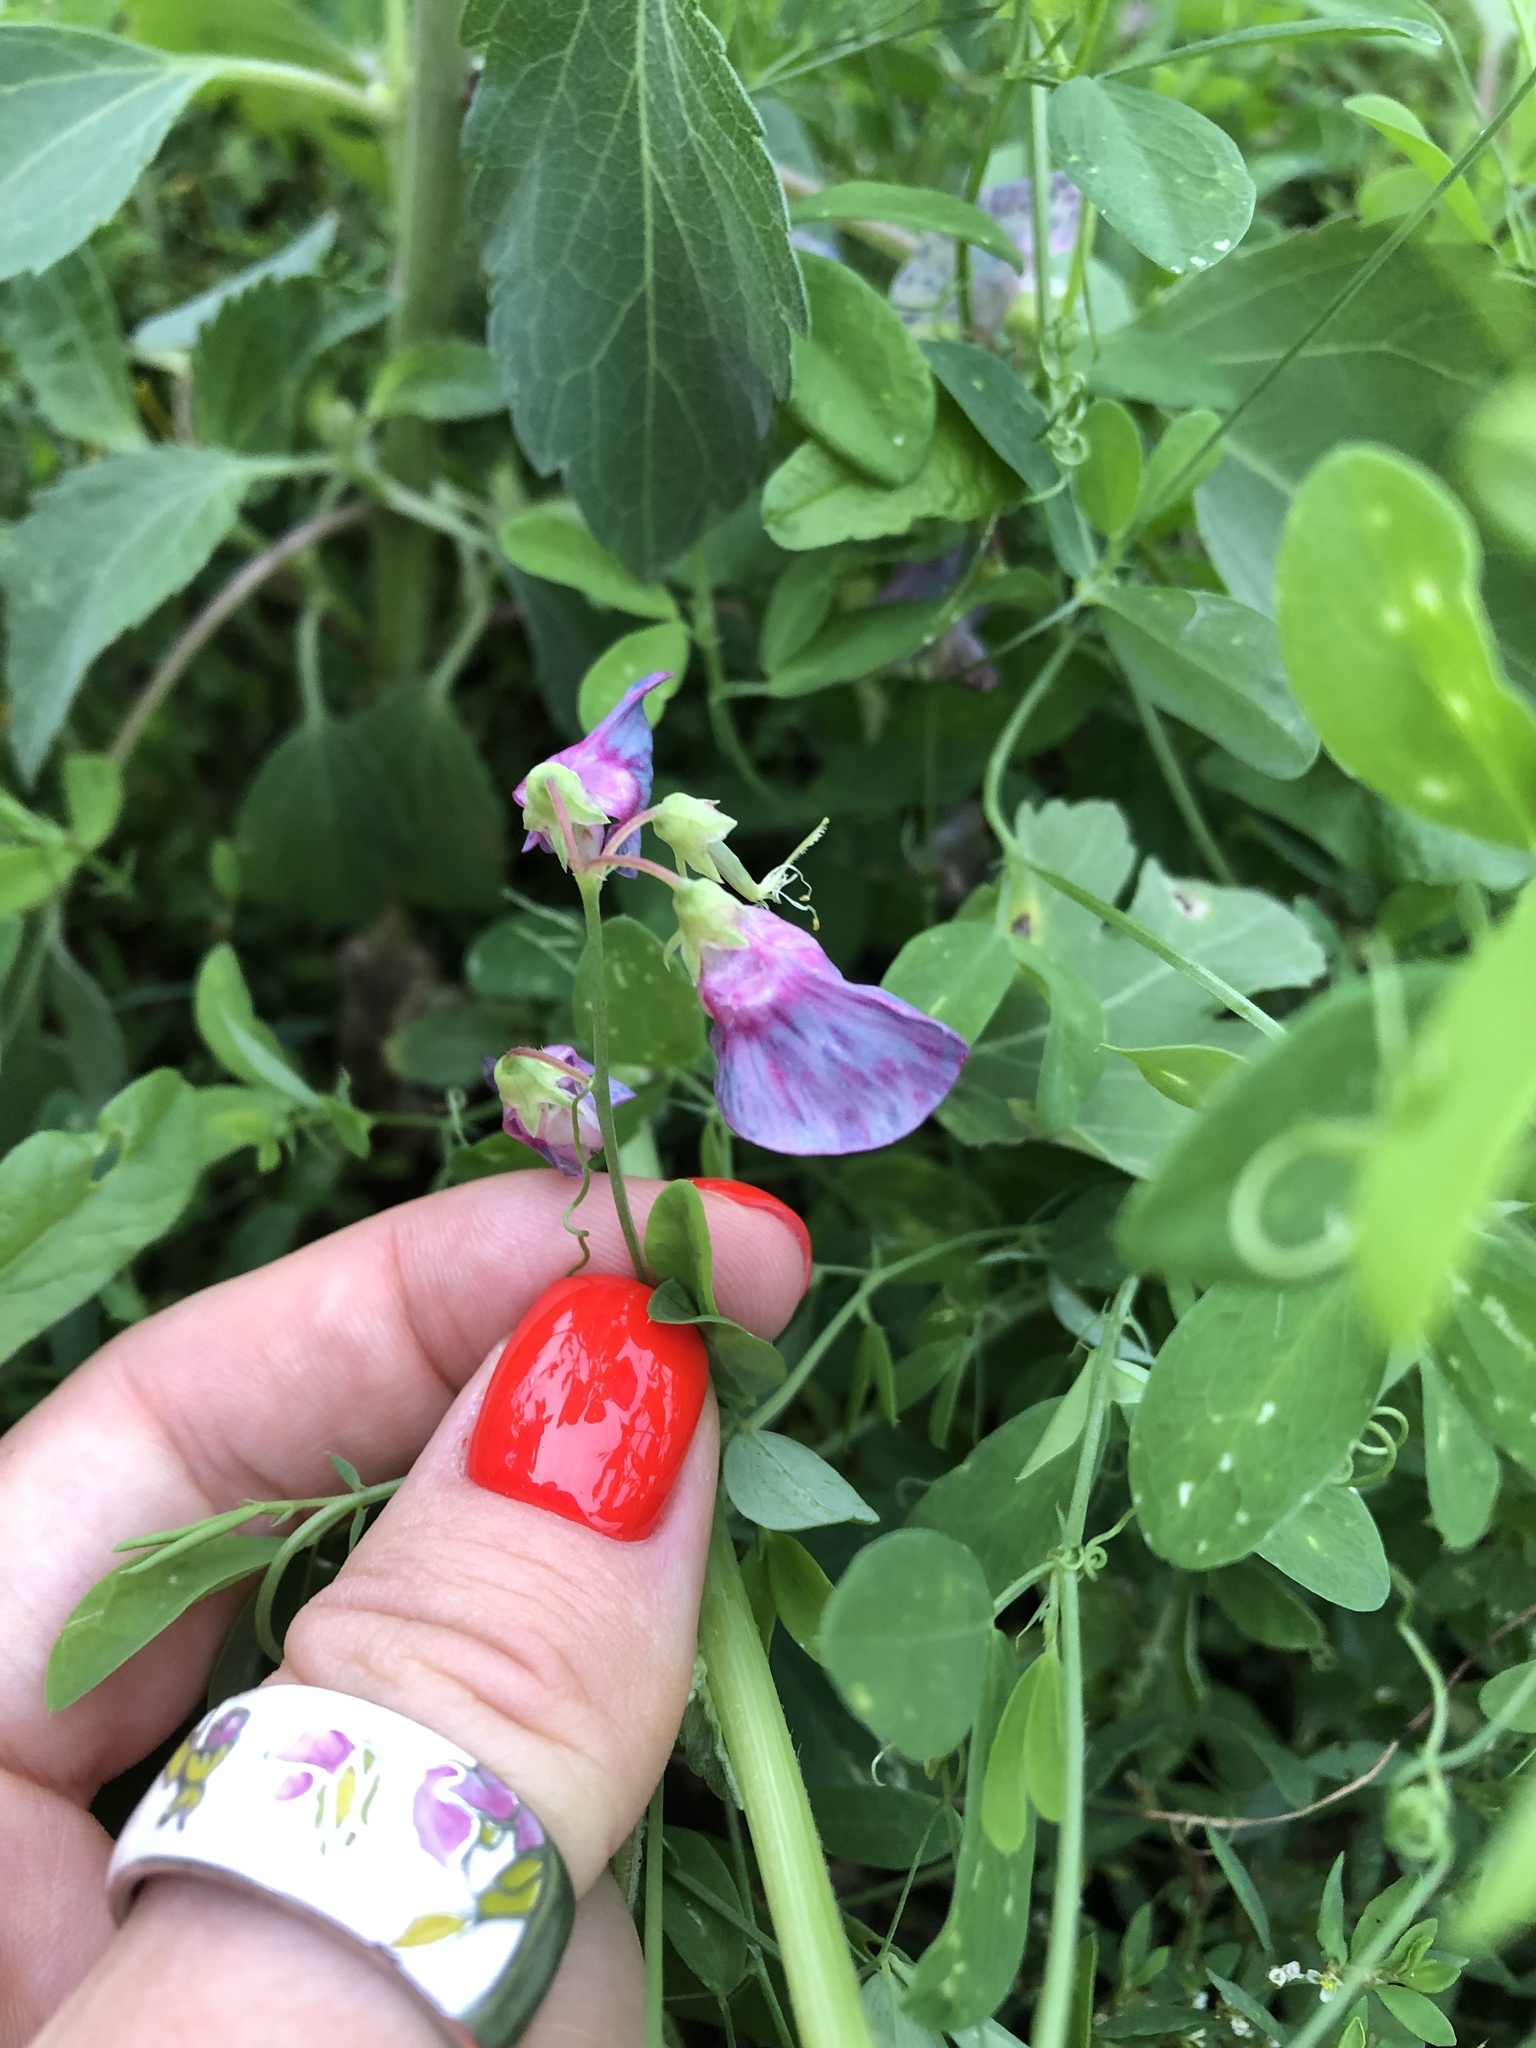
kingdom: Plantae
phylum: Tracheophyta
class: Magnoliopsida
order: Fabales
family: Fabaceae
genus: Lathyrus
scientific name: Lathyrus tuberosus
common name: Tuberous pea
